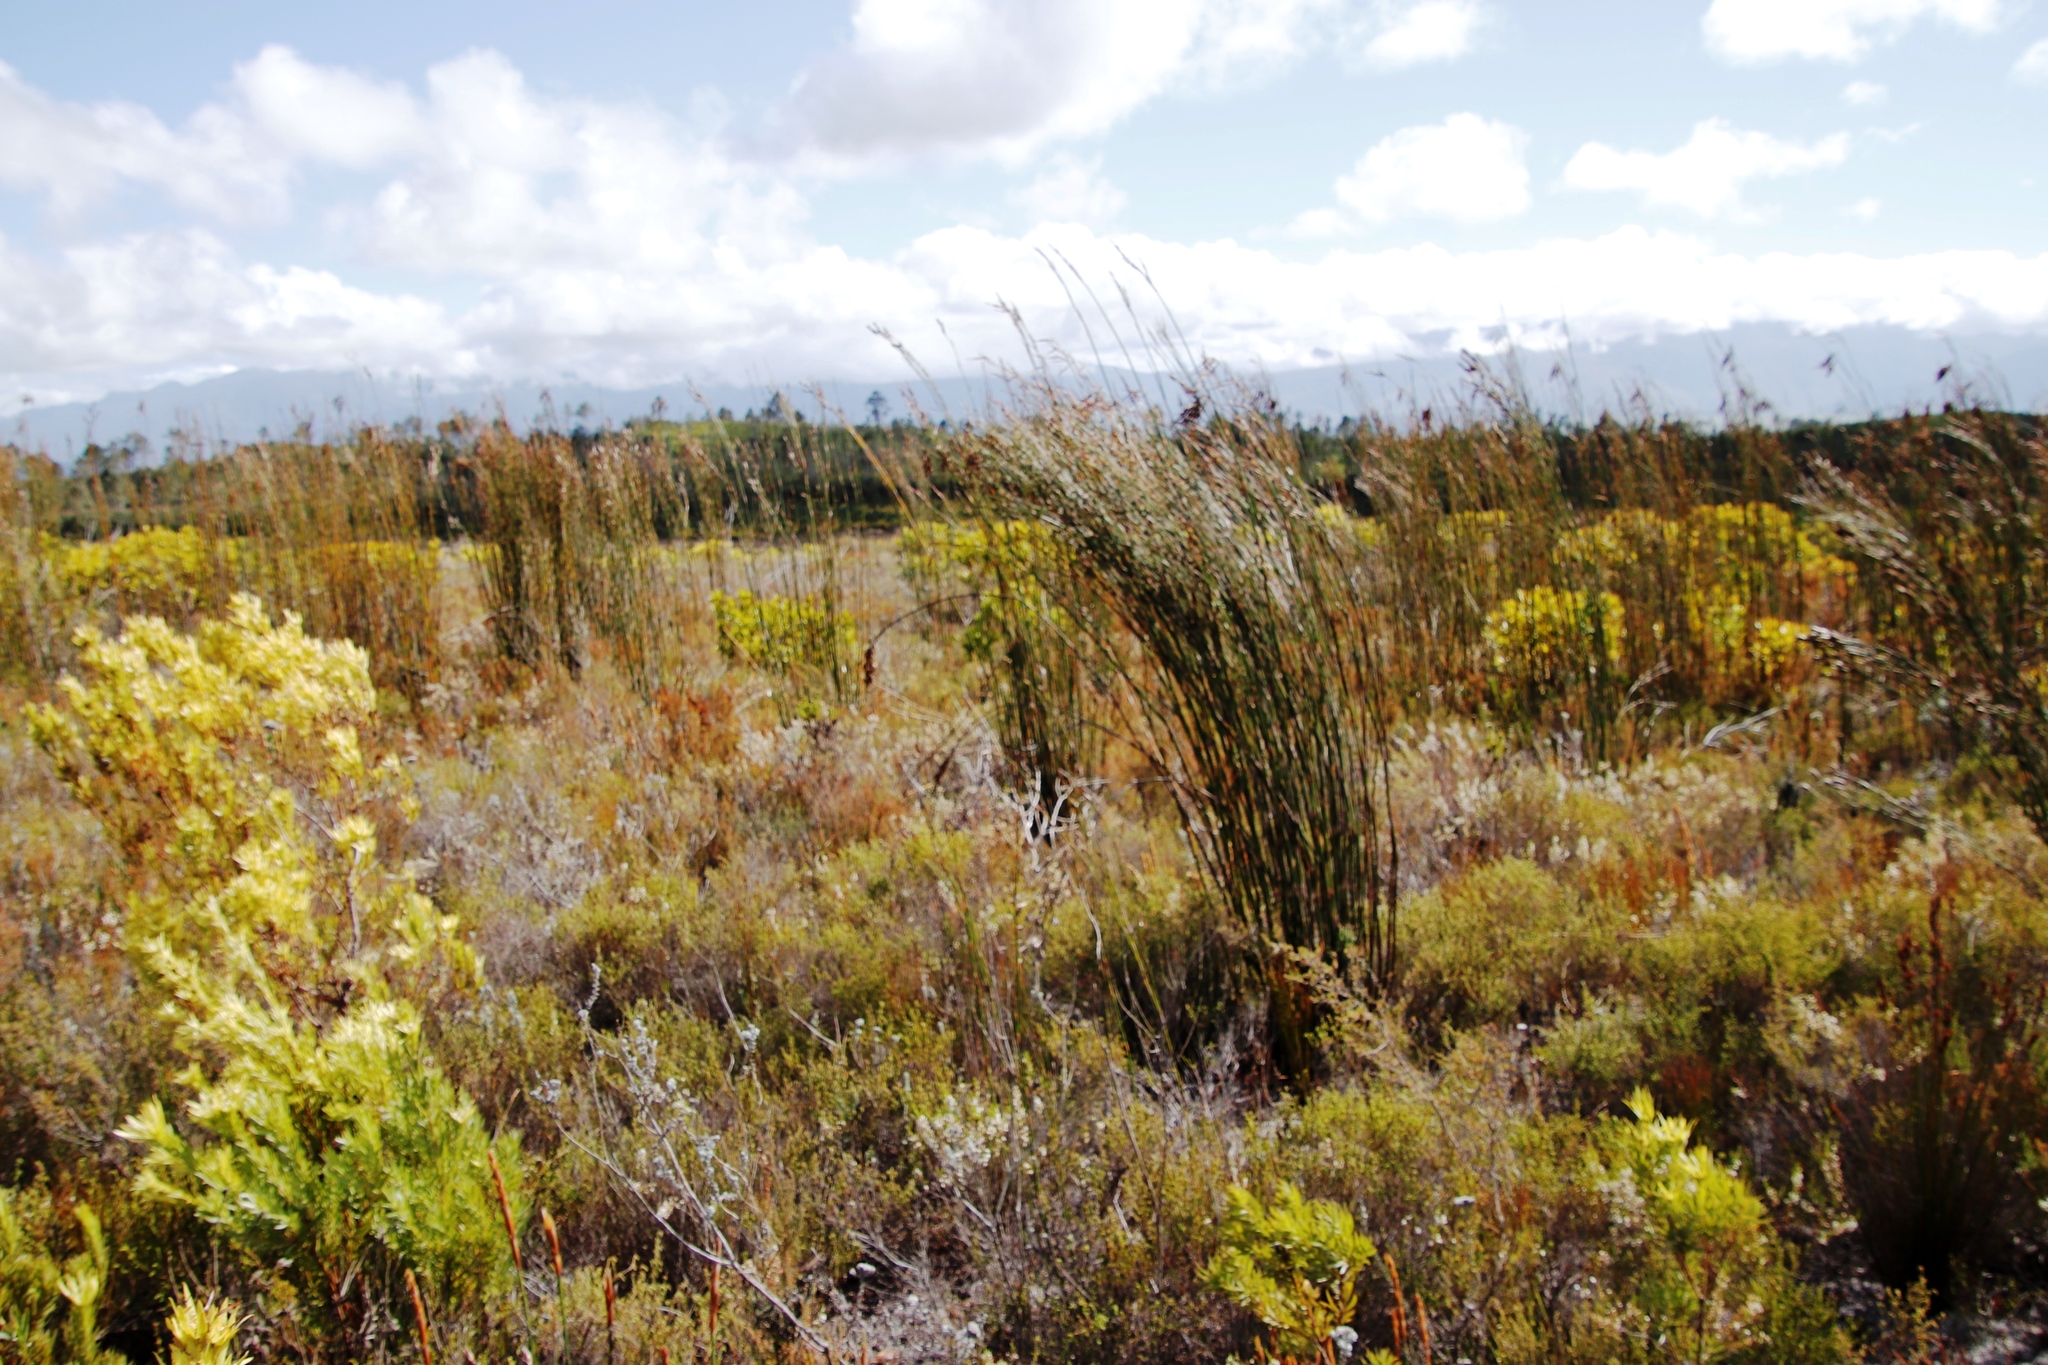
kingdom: Plantae
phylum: Tracheophyta
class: Magnoliopsida
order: Proteales
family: Proteaceae
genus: Leucadendron
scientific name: Leucadendron xanthoconus
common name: Sickle-leaf conebush
